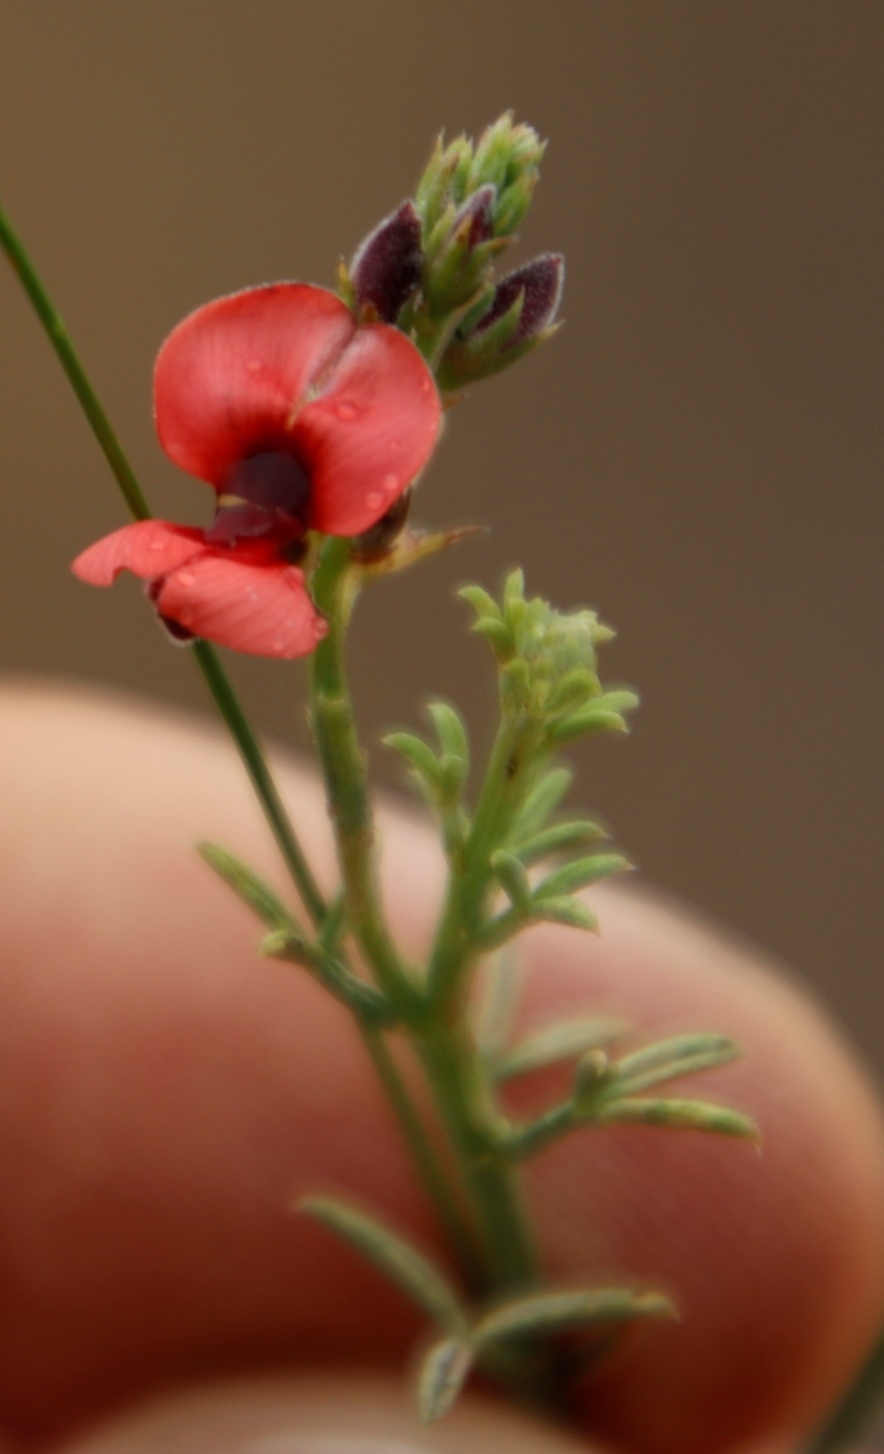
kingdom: Plantae
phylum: Tracheophyta
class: Magnoliopsida
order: Fabales
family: Fabaceae
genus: Indigofera
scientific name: Indigofera heterophylla
